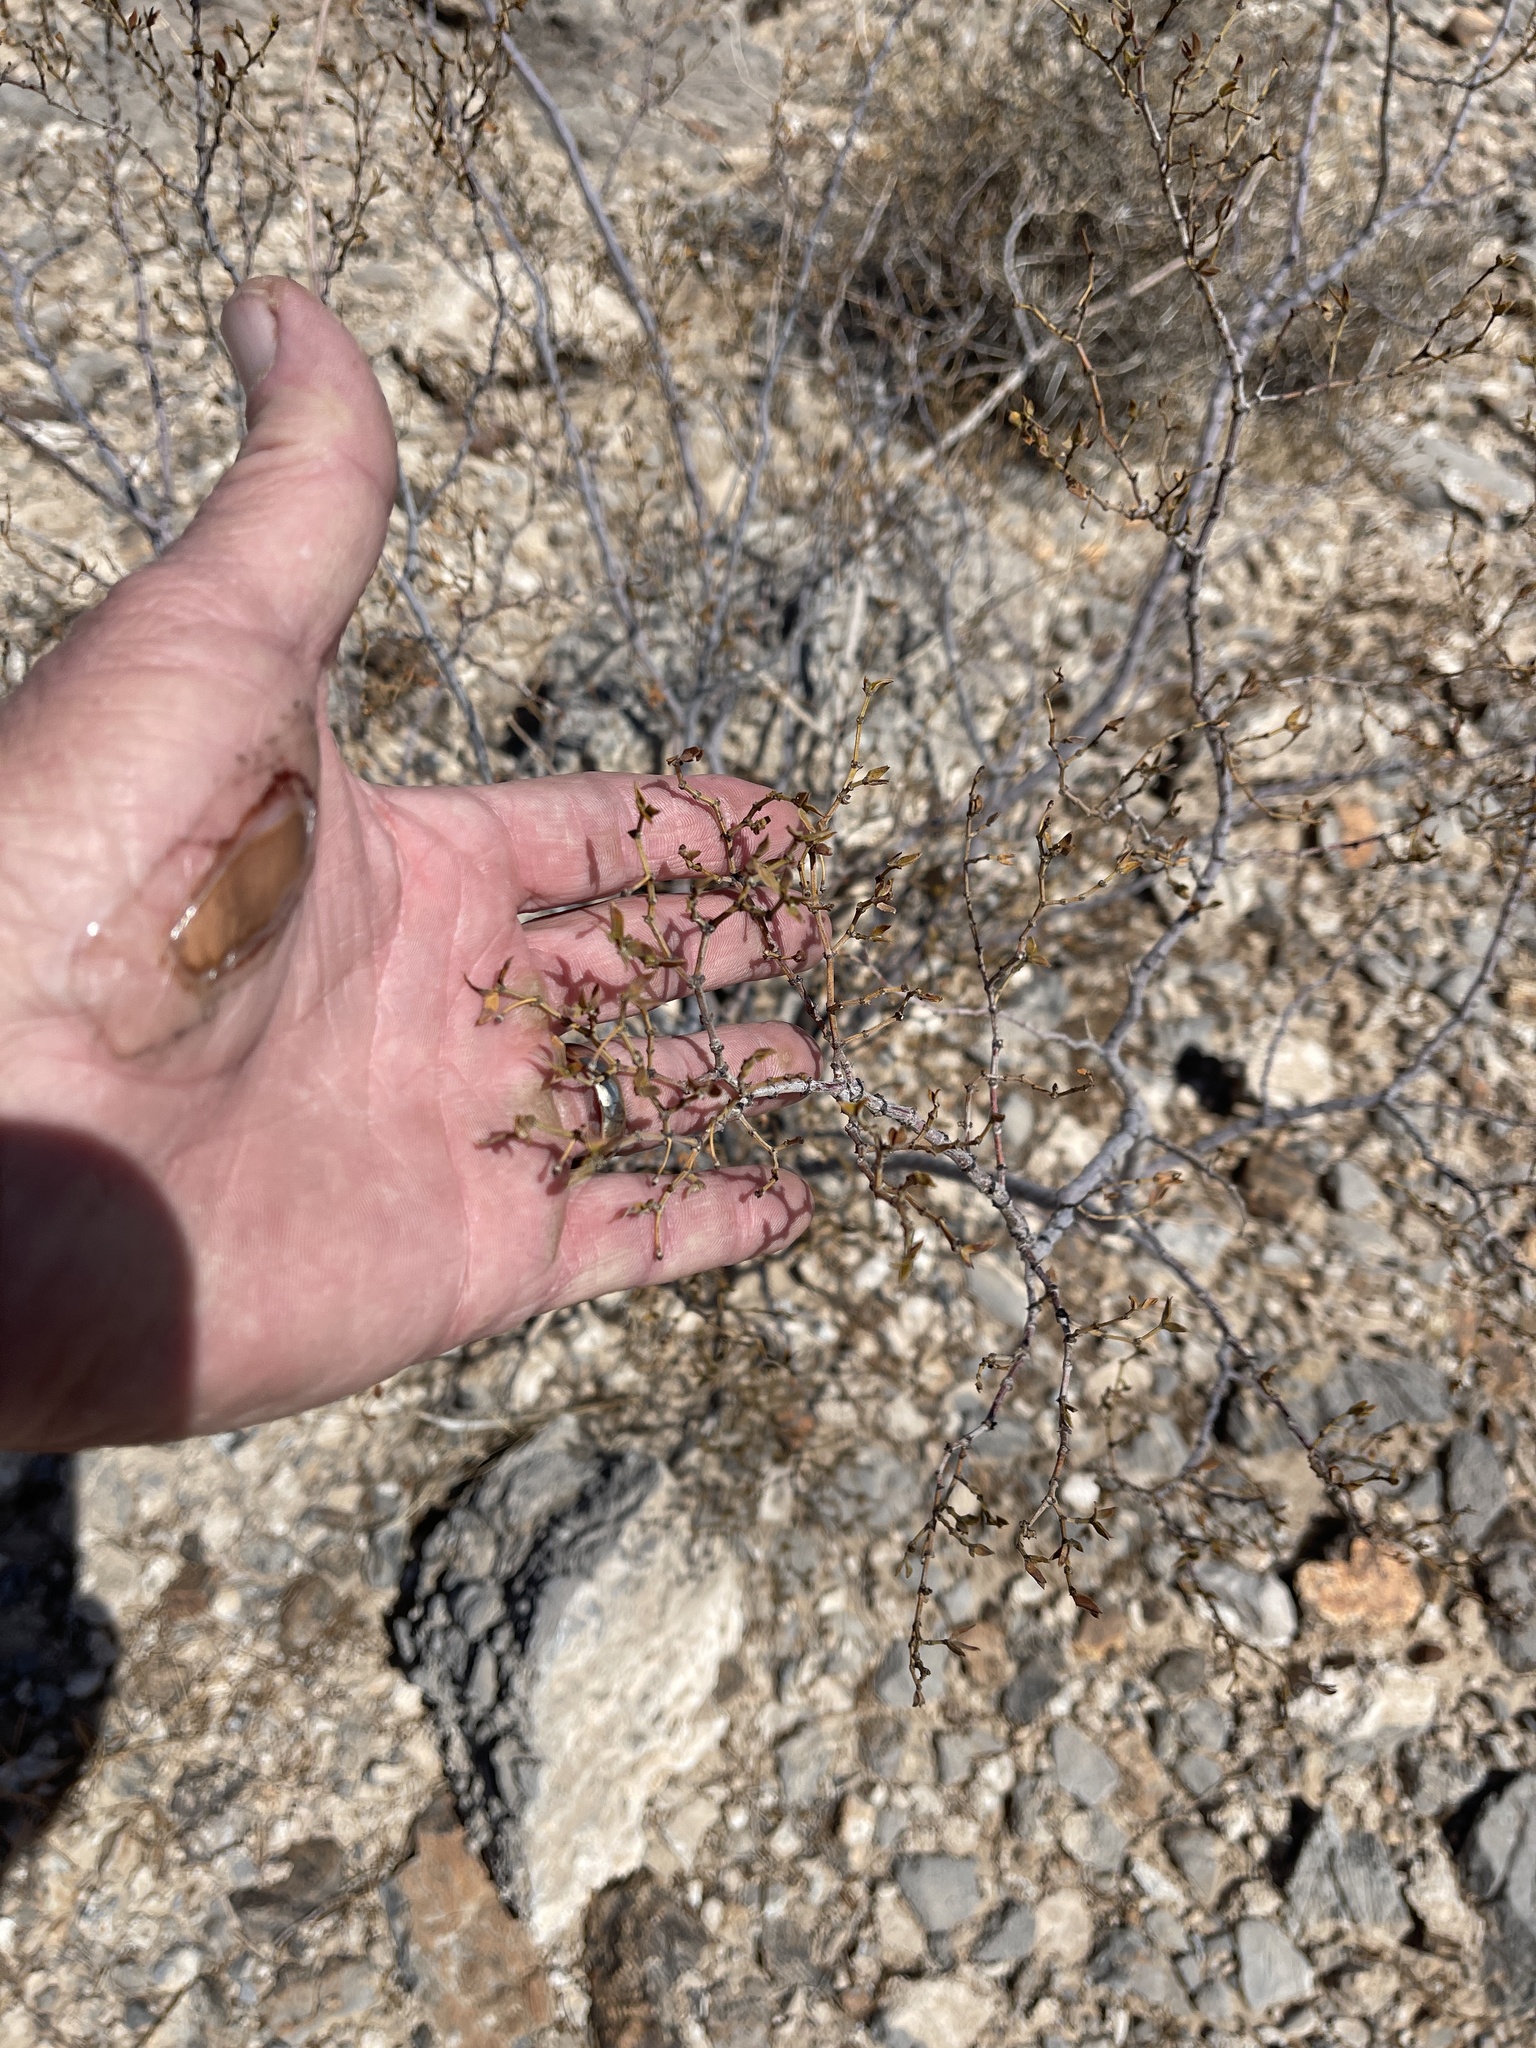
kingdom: Plantae
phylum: Tracheophyta
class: Magnoliopsida
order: Zygophyllales
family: Zygophyllaceae
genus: Larrea
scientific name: Larrea tridentata
